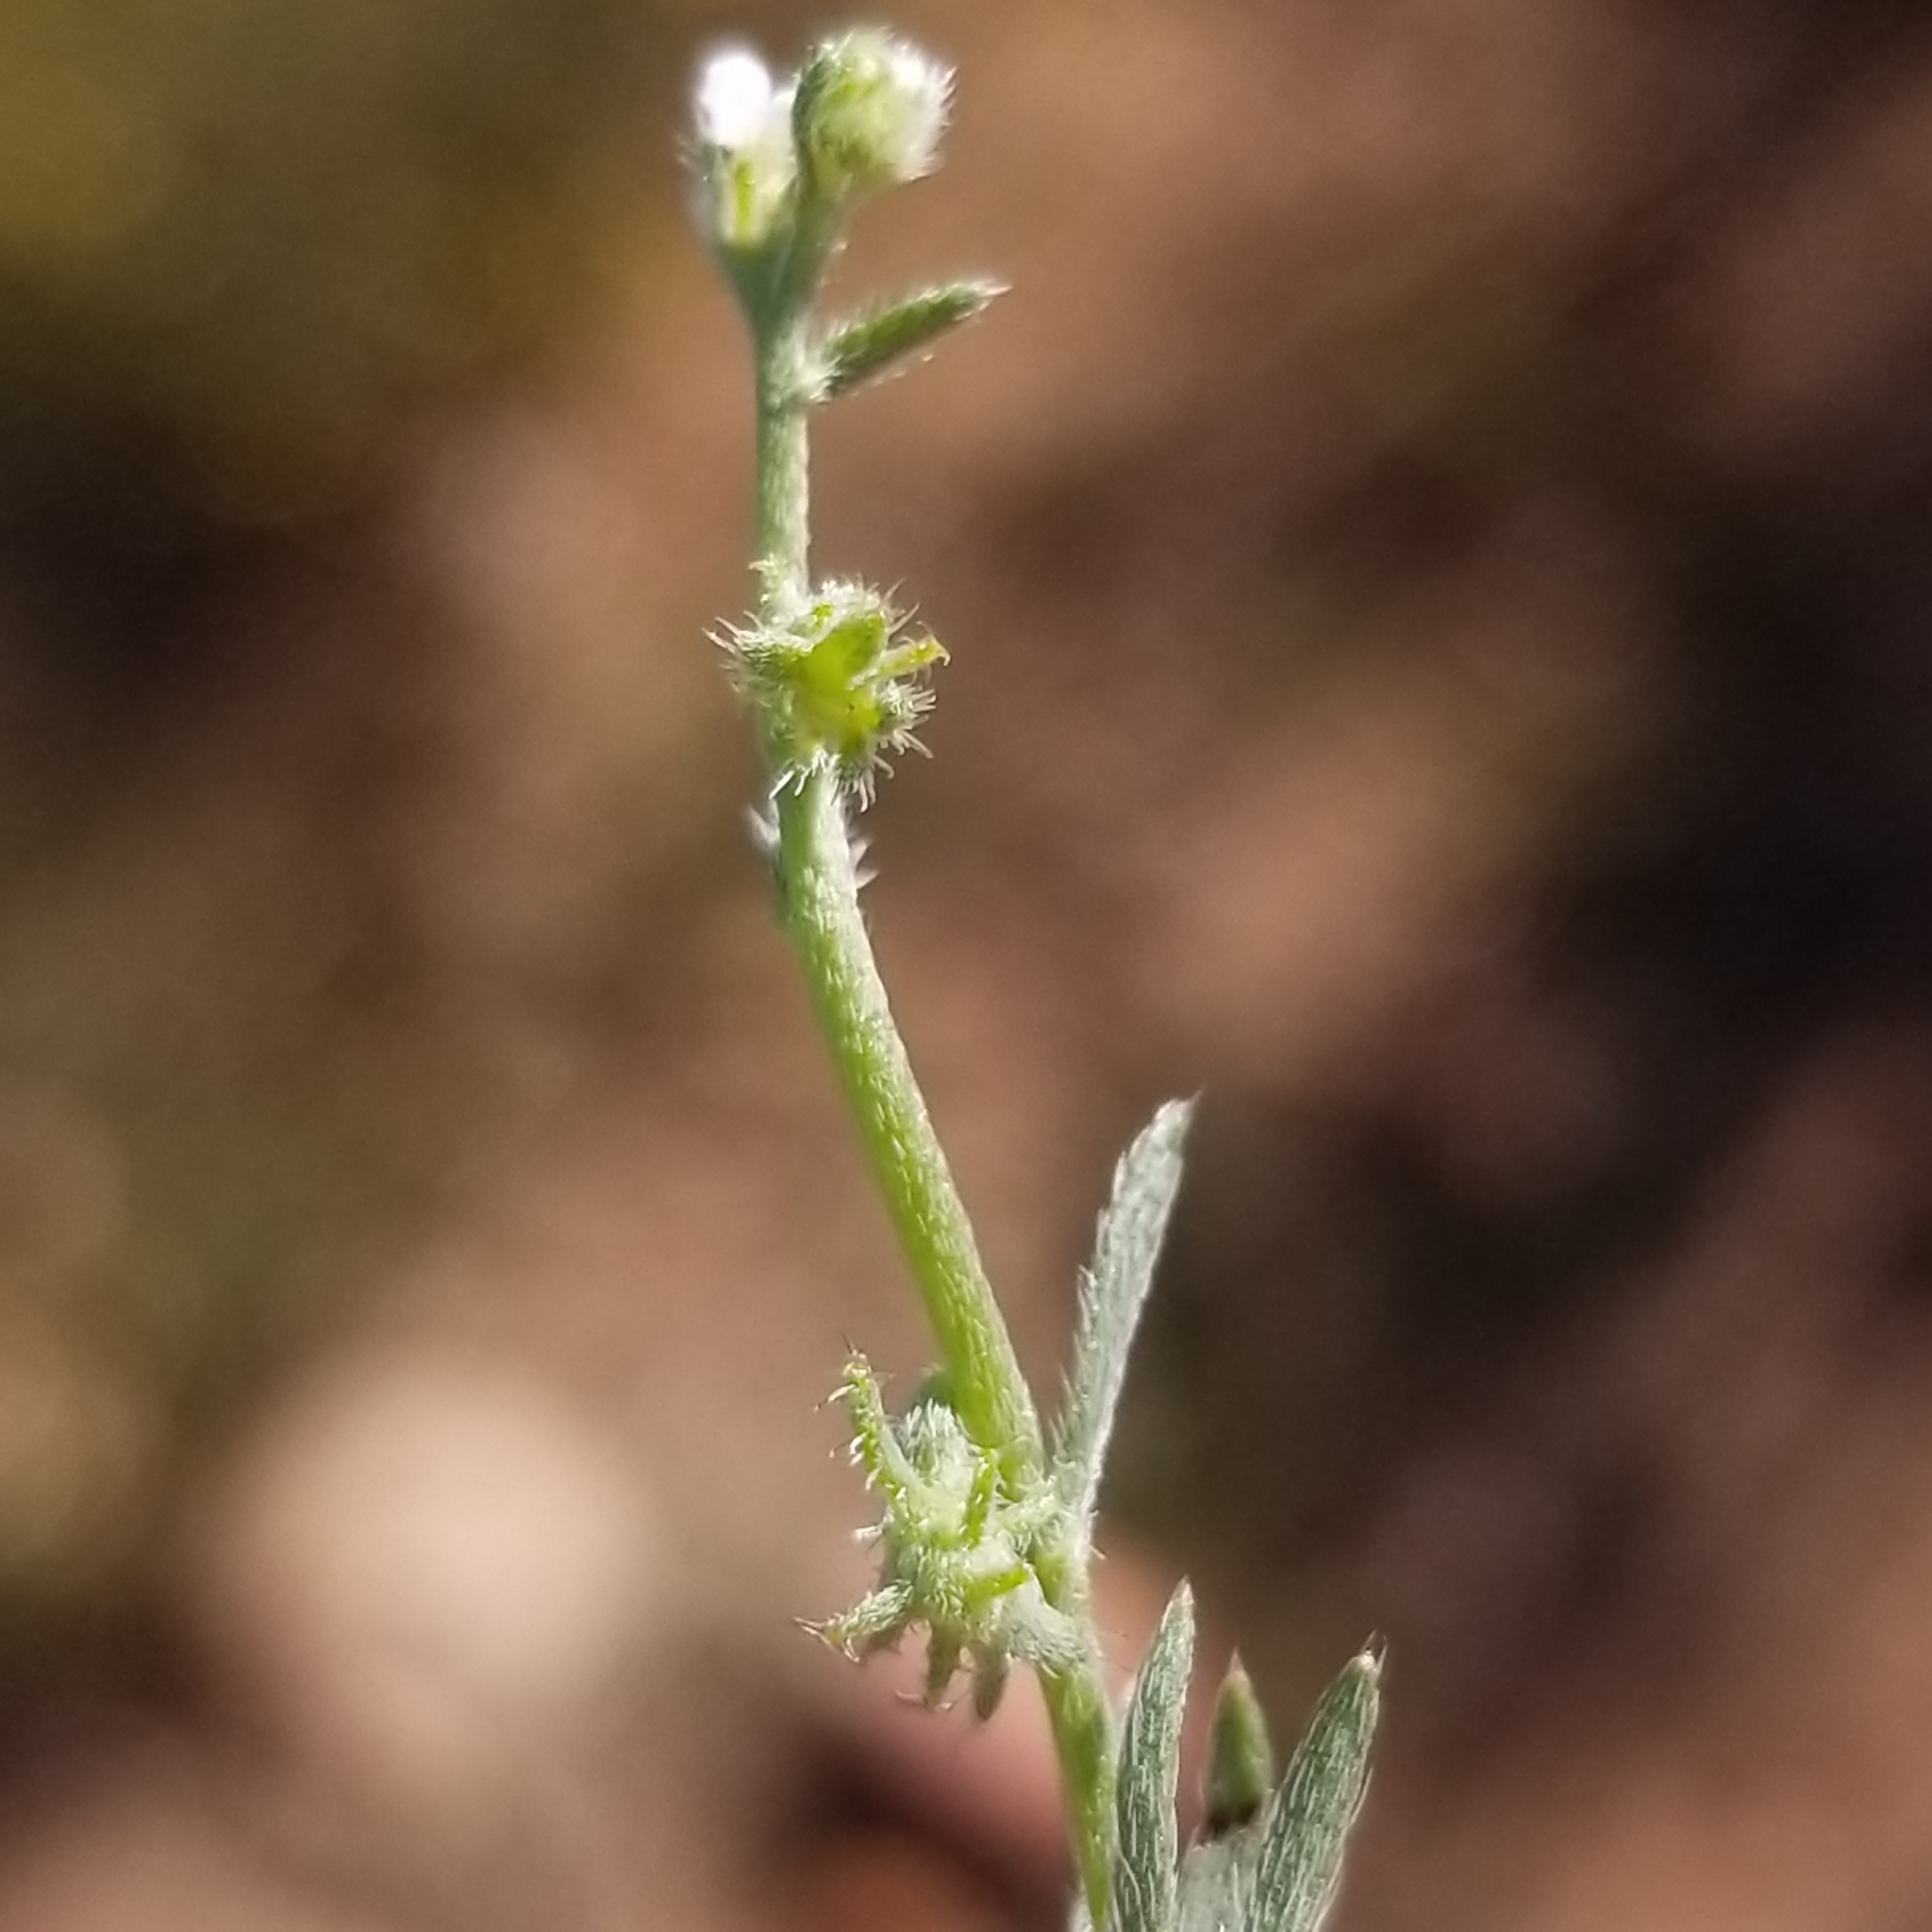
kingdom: Plantae
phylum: Tracheophyta
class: Magnoliopsida
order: Boraginales
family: Boraginaceae
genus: Harpagonella
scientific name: Harpagonella palmeri
